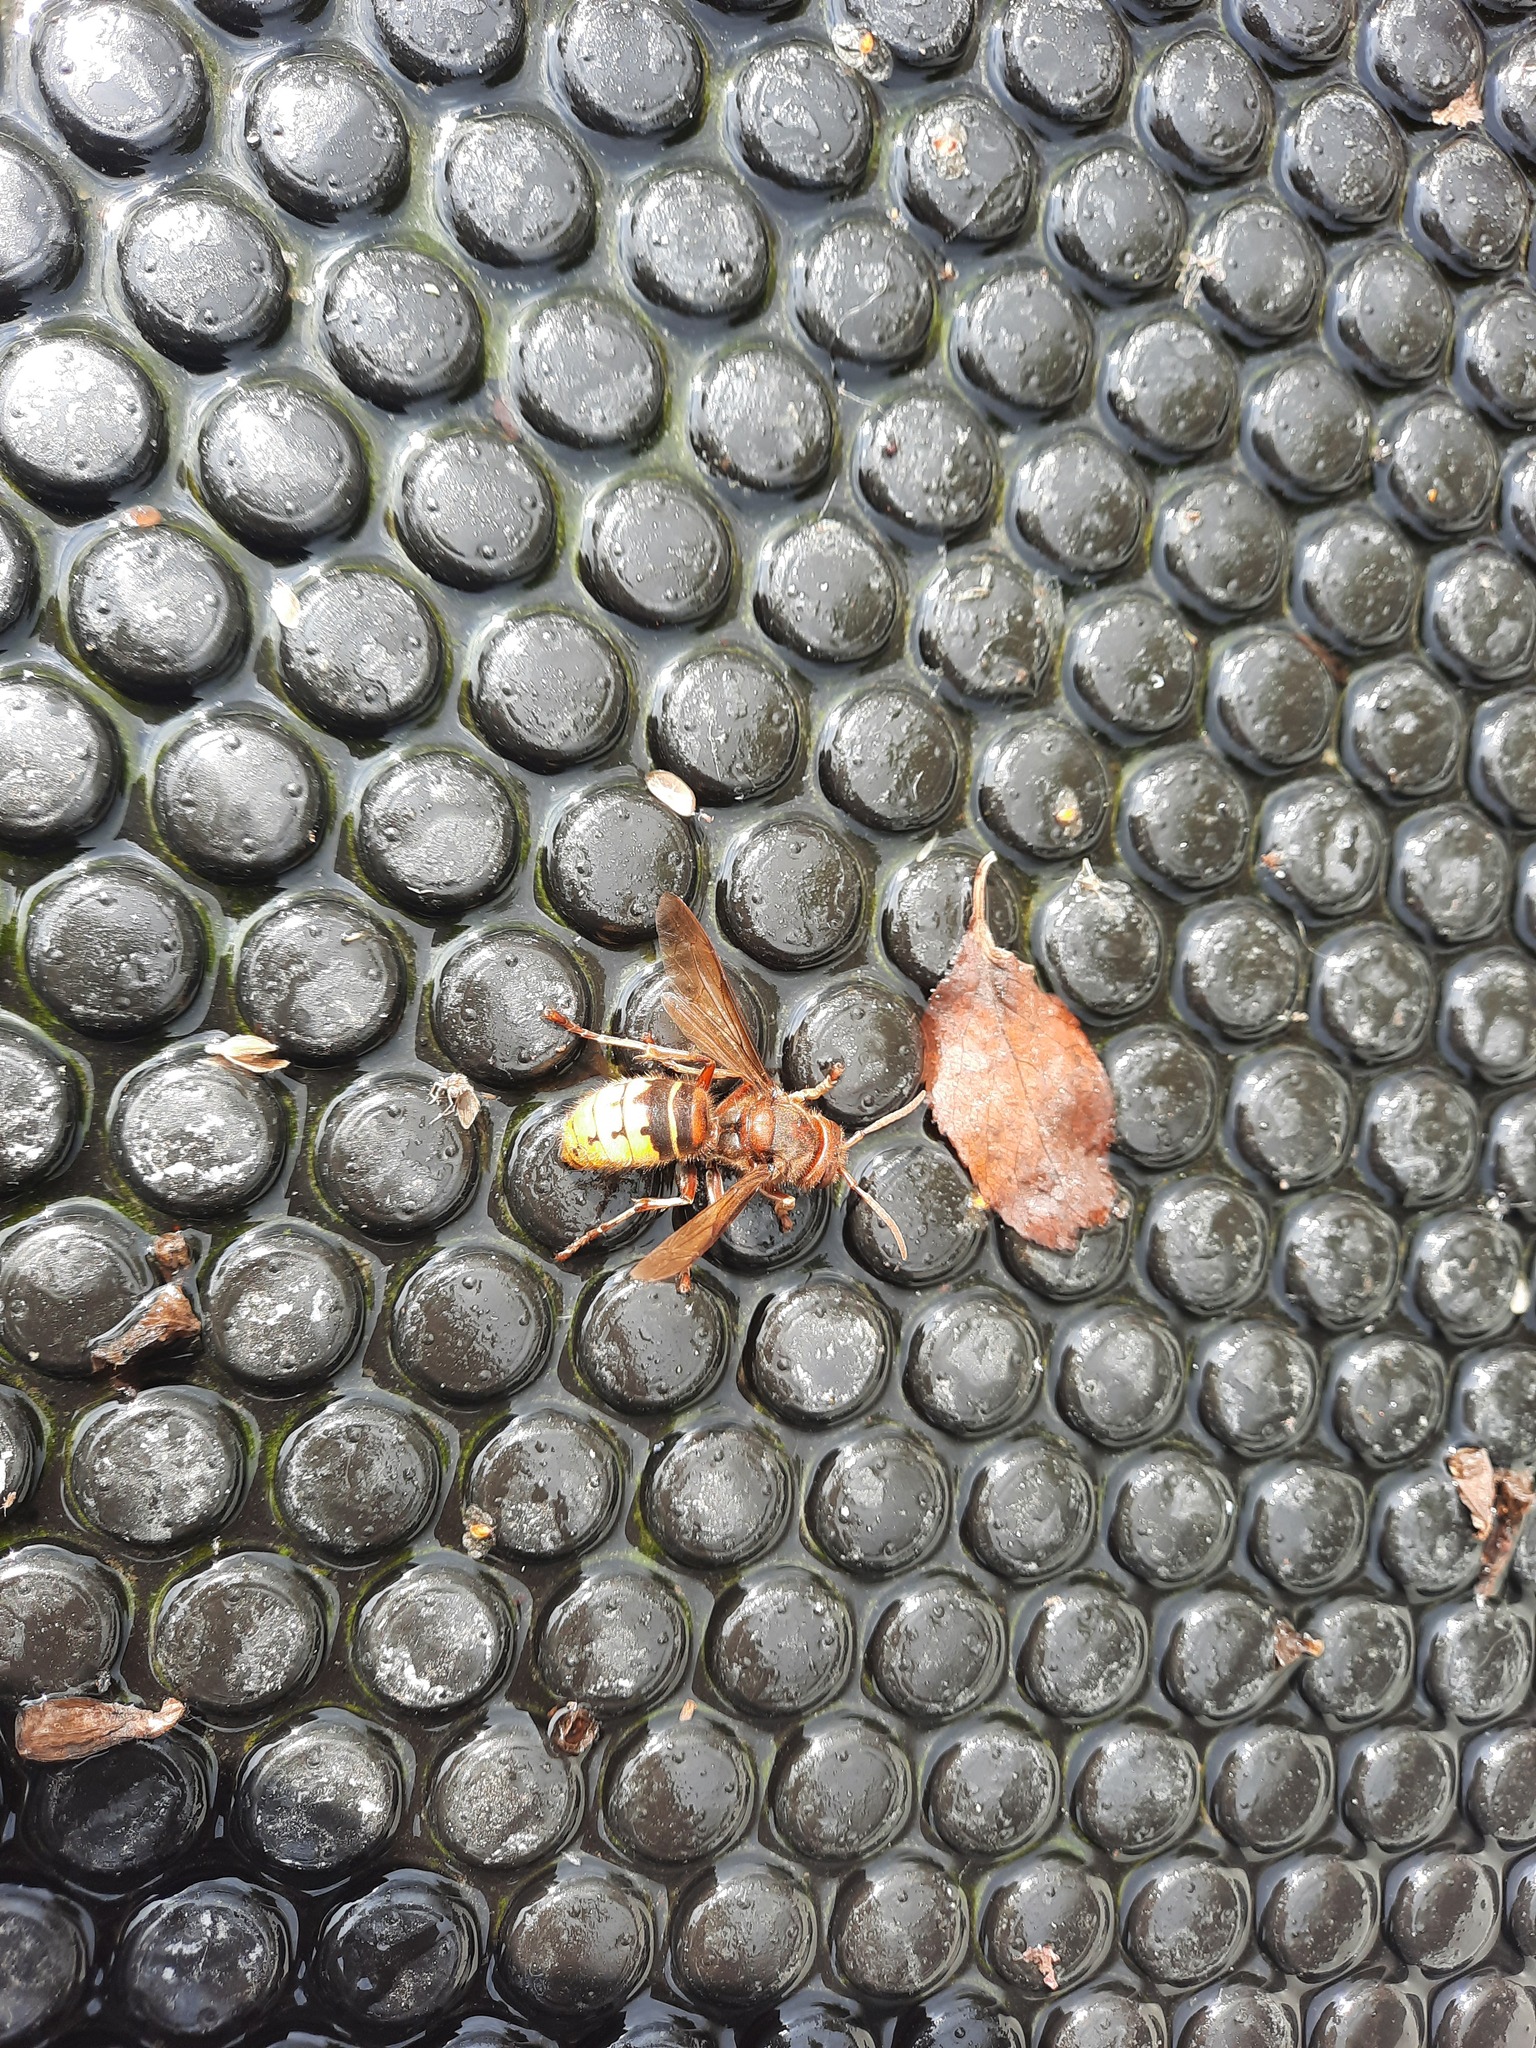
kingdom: Animalia
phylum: Arthropoda
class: Insecta
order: Hymenoptera
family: Vespidae
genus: Vespa
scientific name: Vespa crabro
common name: Hornet
